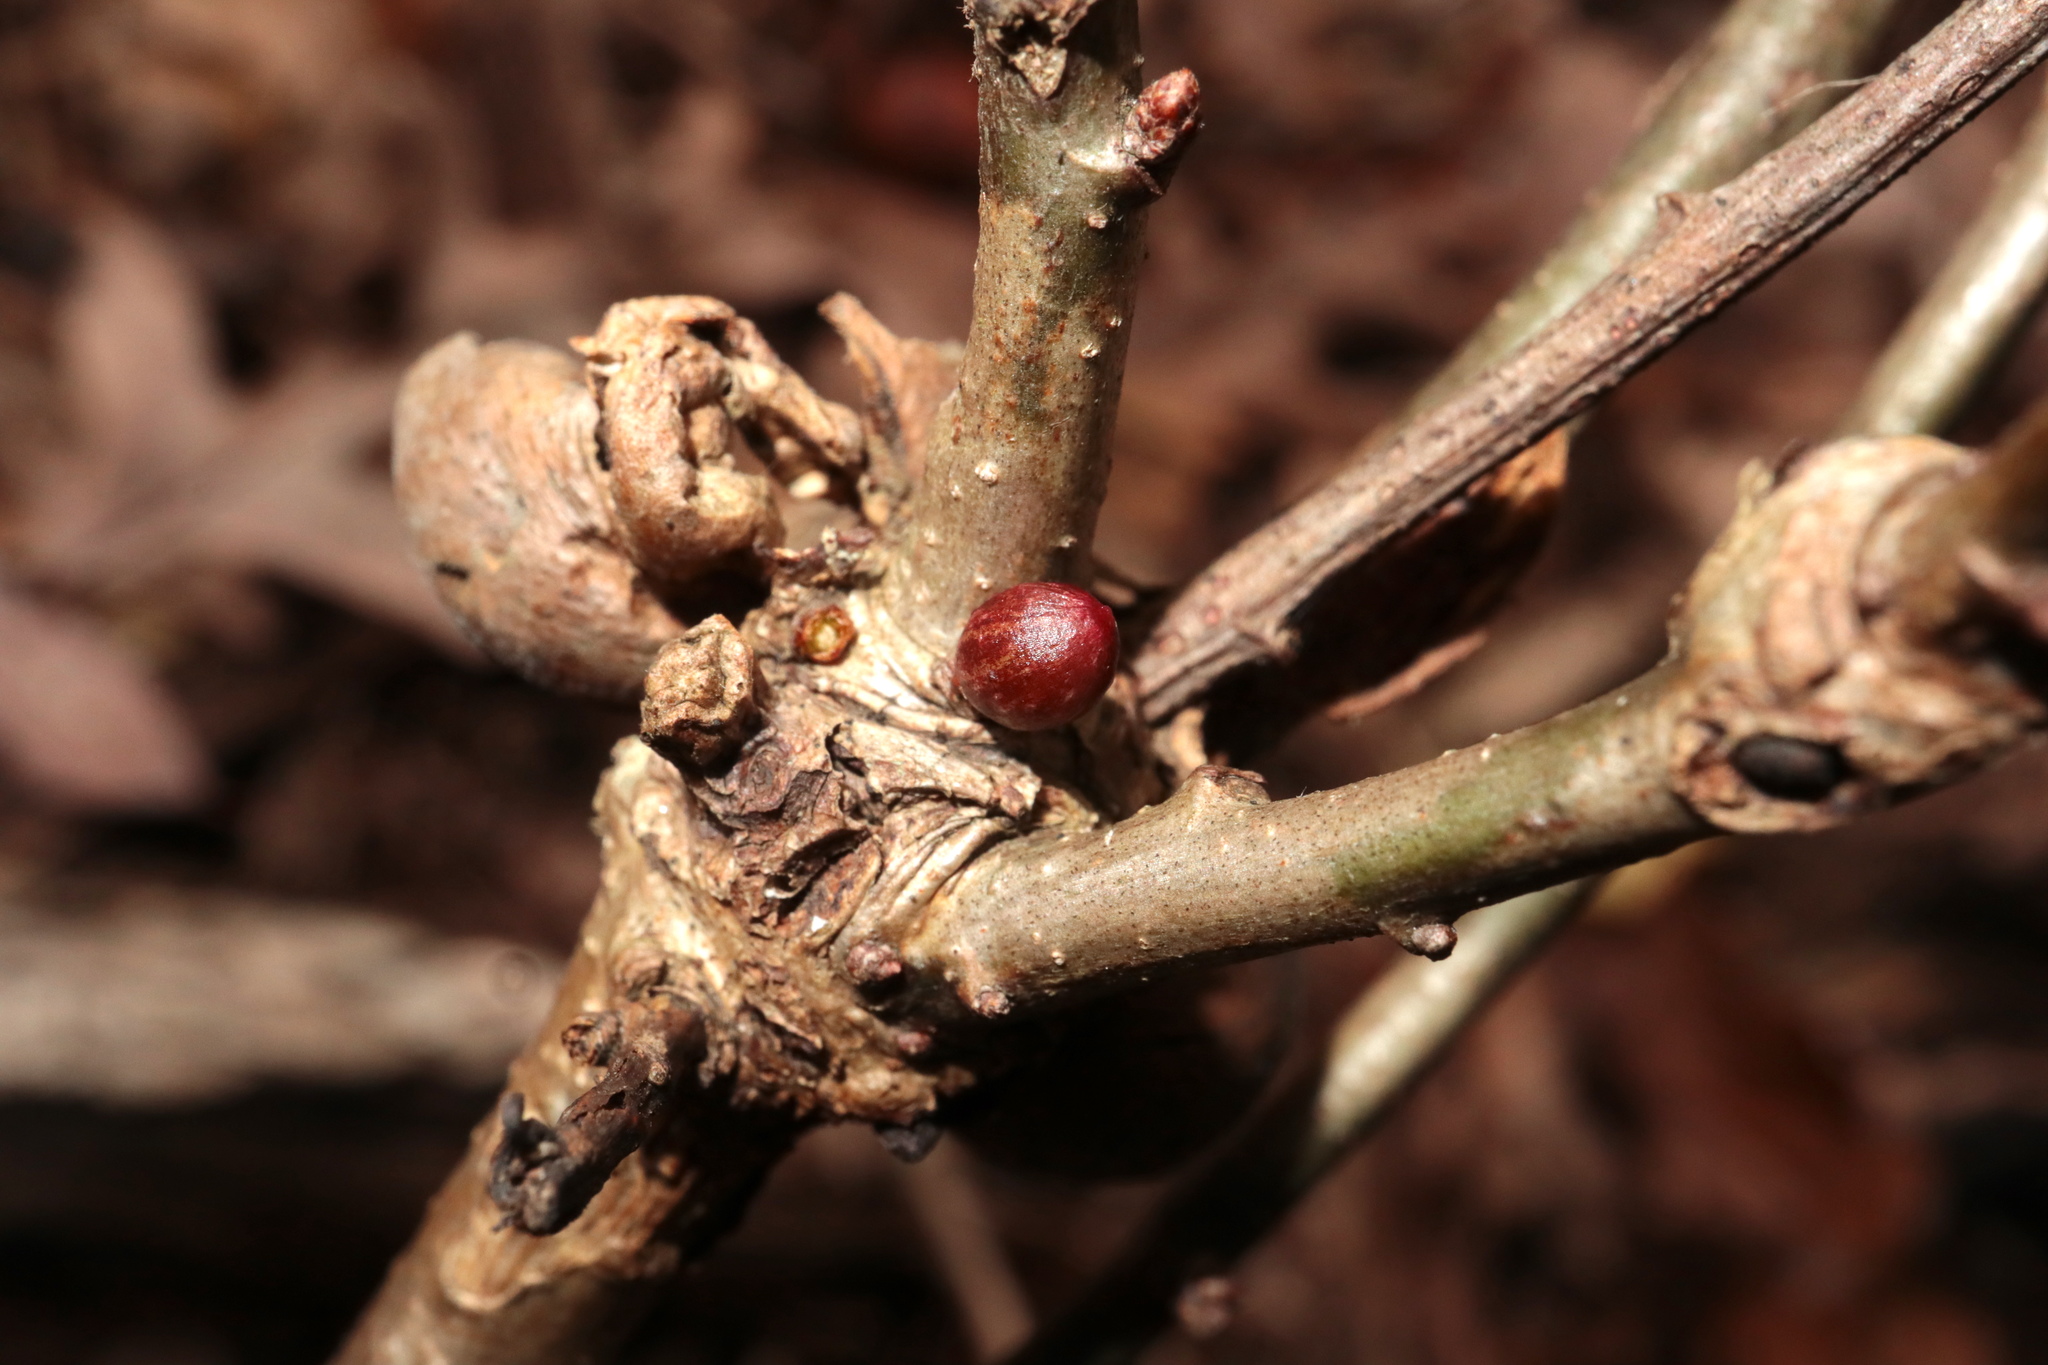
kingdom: Animalia
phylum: Arthropoda
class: Insecta
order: Hymenoptera
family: Cynipidae
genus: Andricus
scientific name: Andricus
